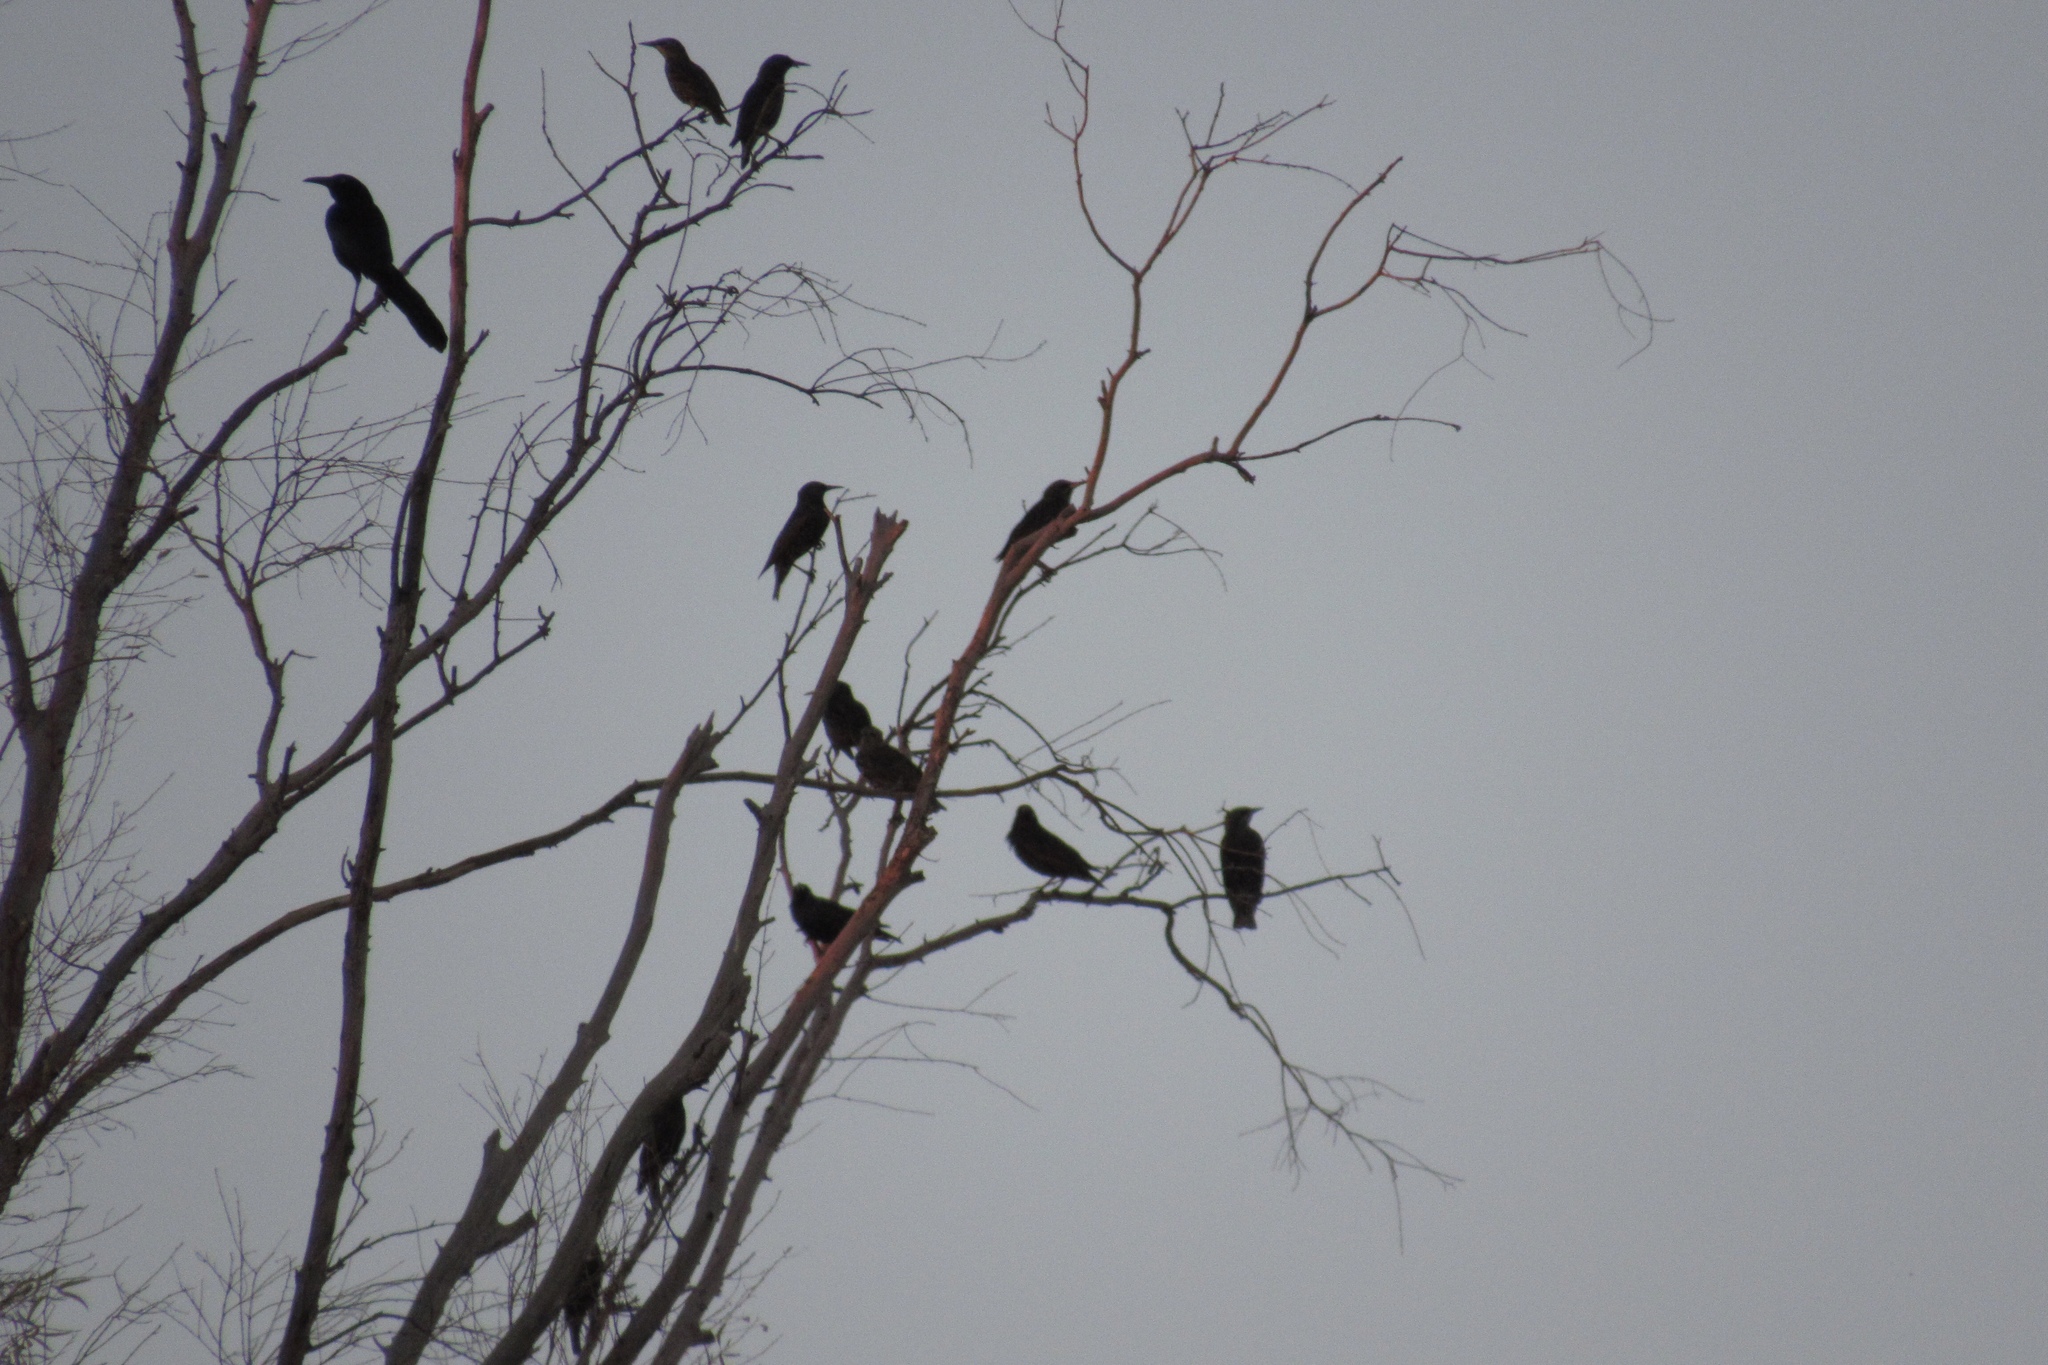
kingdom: Animalia
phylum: Chordata
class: Aves
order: Passeriformes
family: Icteridae
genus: Quiscalus
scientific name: Quiscalus mexicanus
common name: Great-tailed grackle
